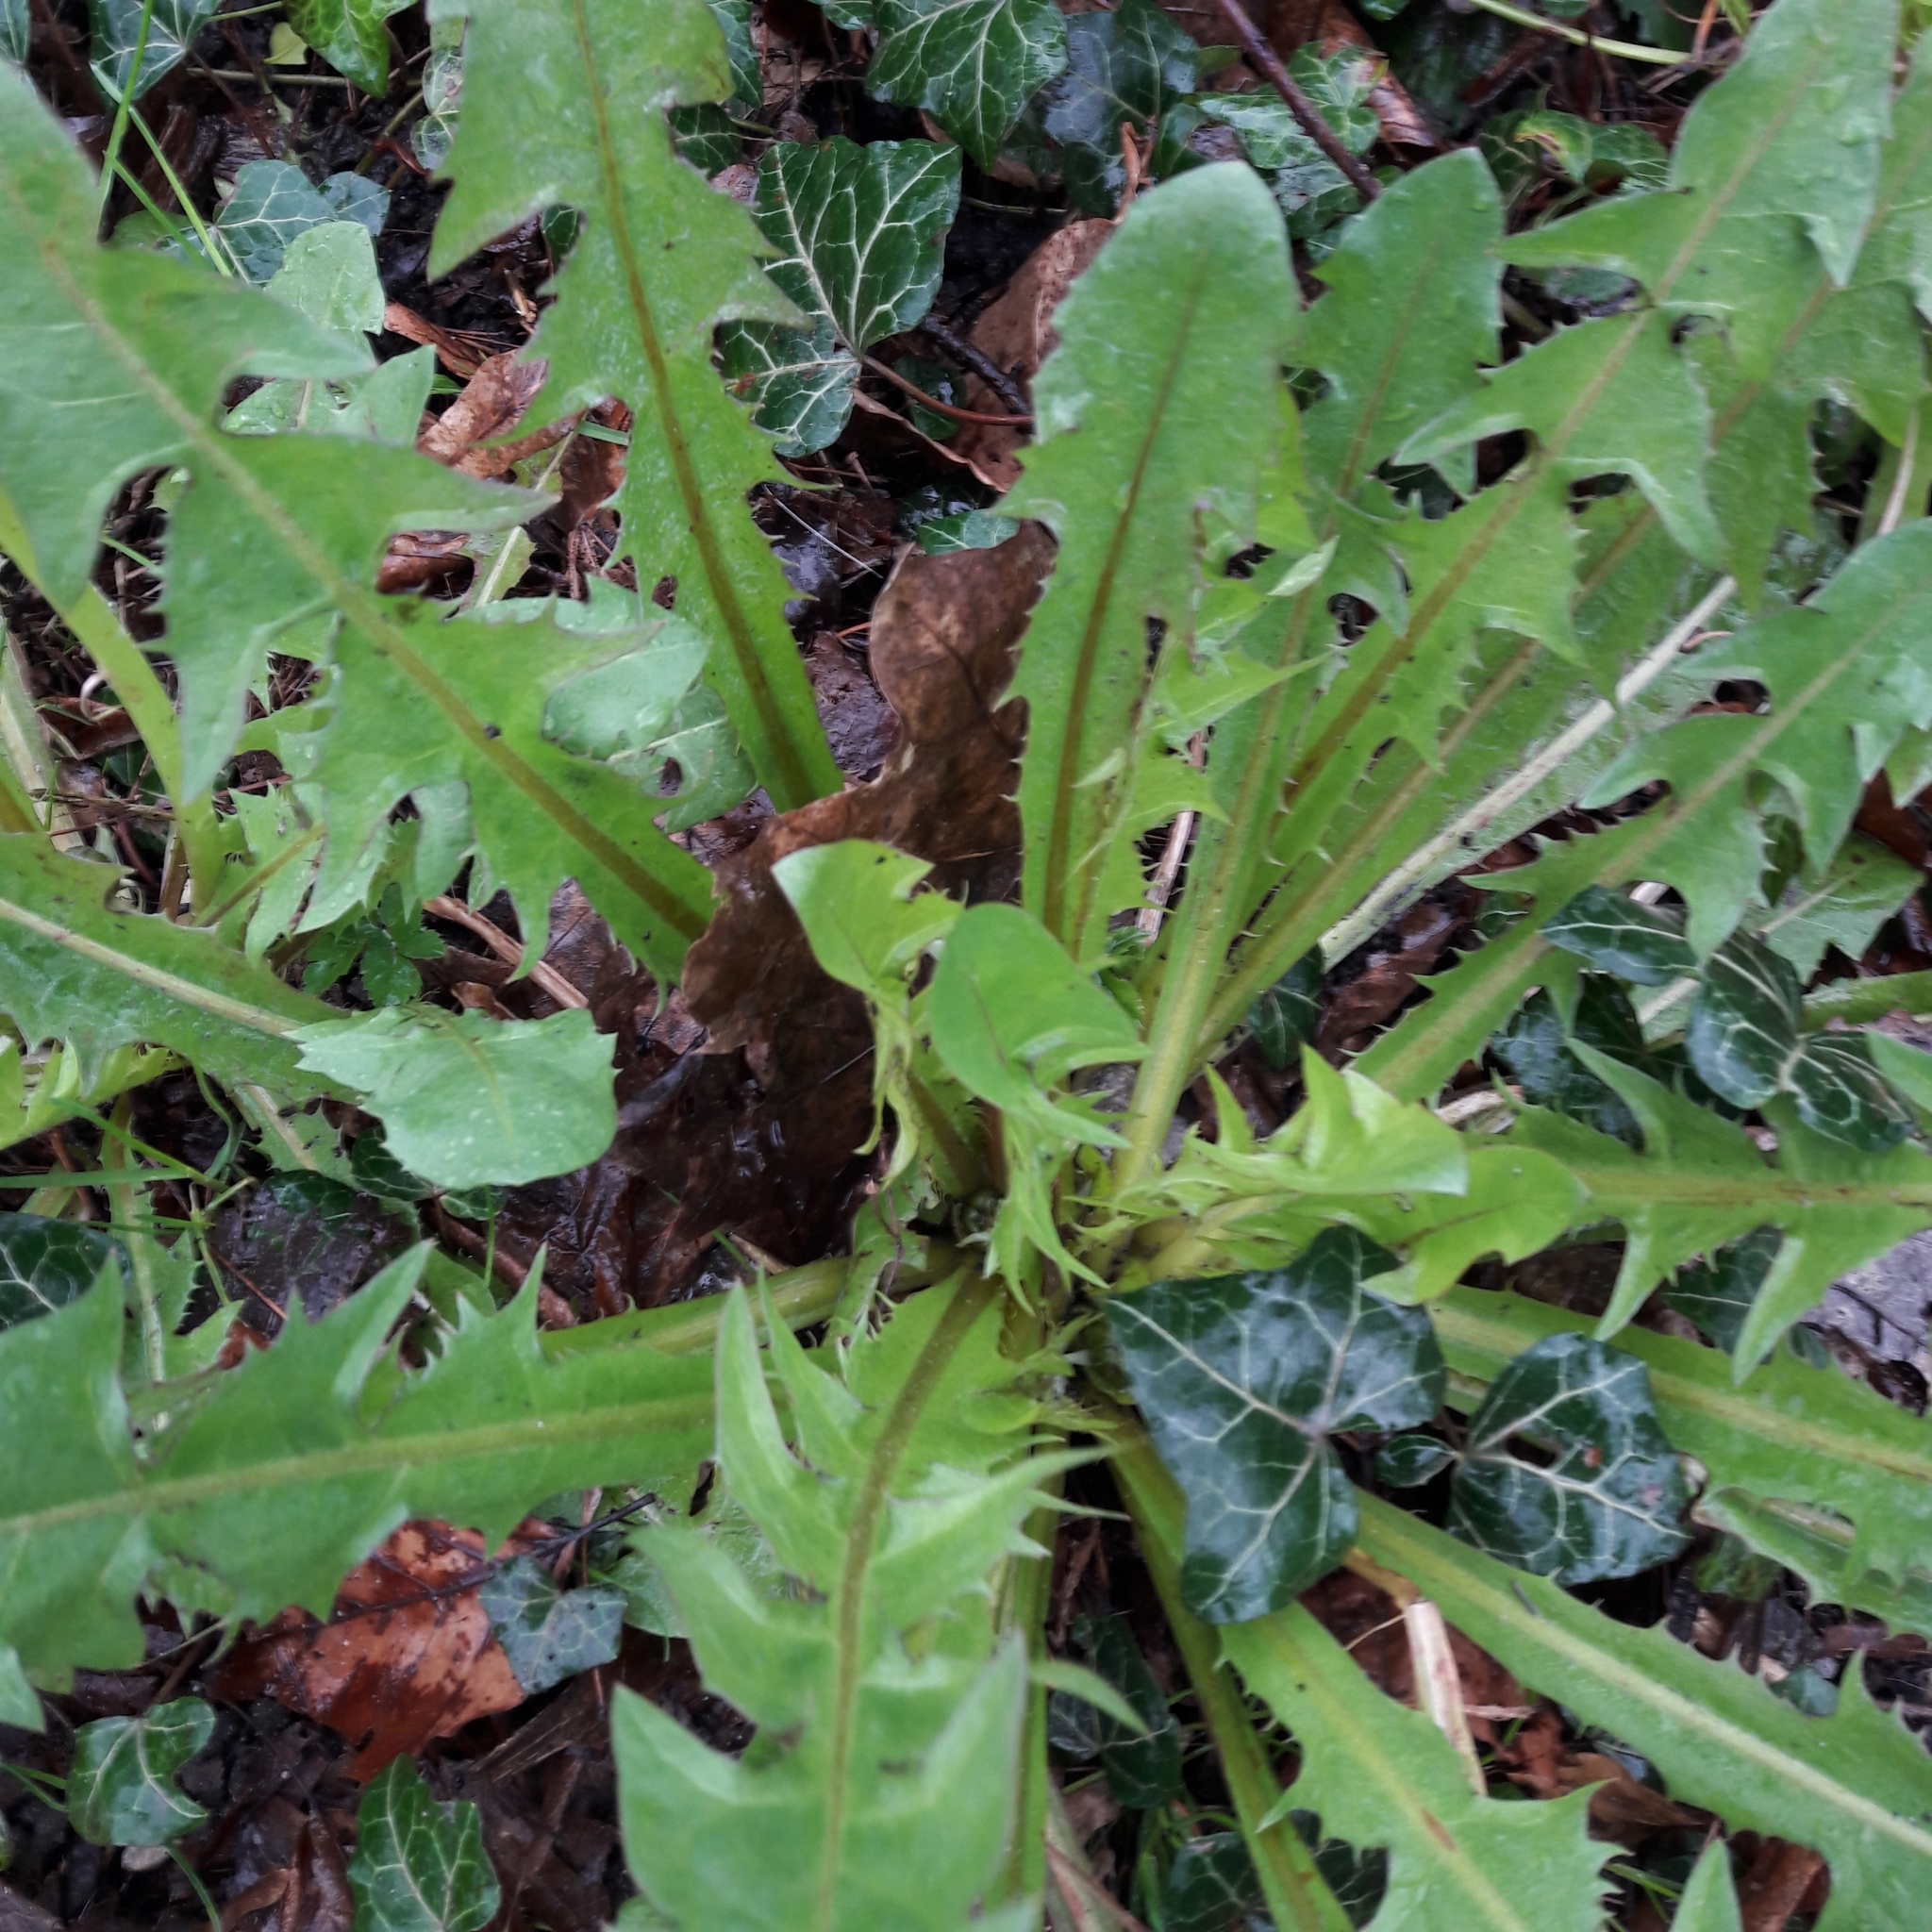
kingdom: Plantae
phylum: Tracheophyta
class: Magnoliopsida
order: Asterales
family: Asteraceae
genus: Taraxacum
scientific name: Taraxacum officinale
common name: Common dandelion
